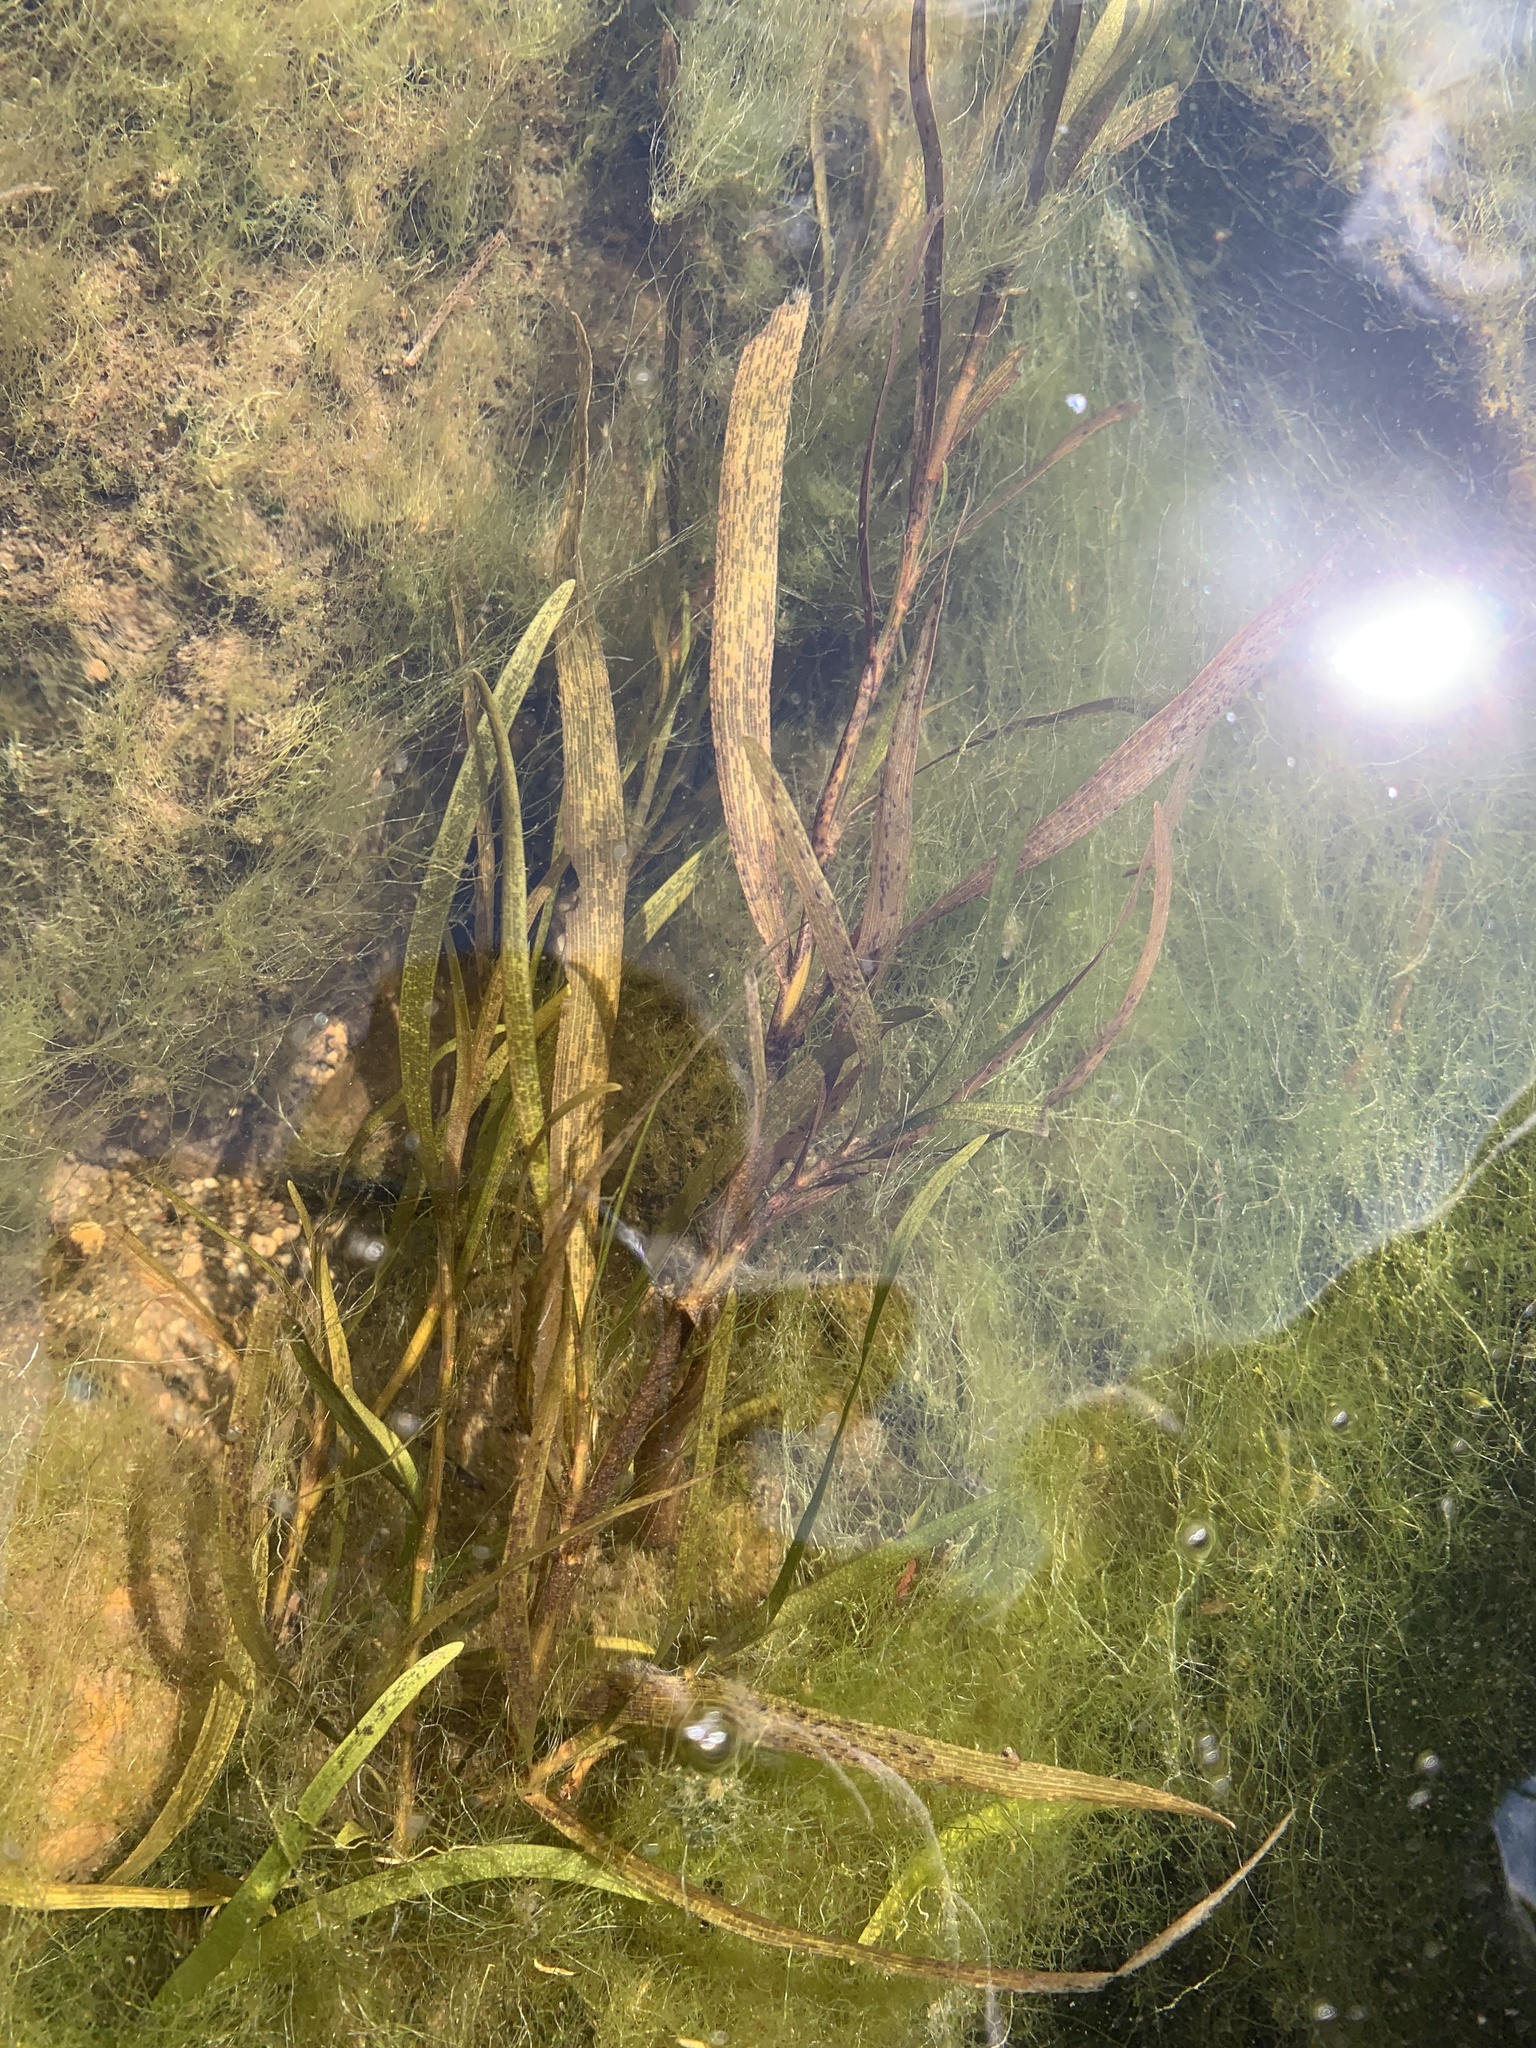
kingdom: Plantae
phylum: Tracheophyta
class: Liliopsida
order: Commelinales
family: Pontederiaceae
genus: Heteranthera
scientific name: Heteranthera dubia
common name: Grass-leaved mud plantain
